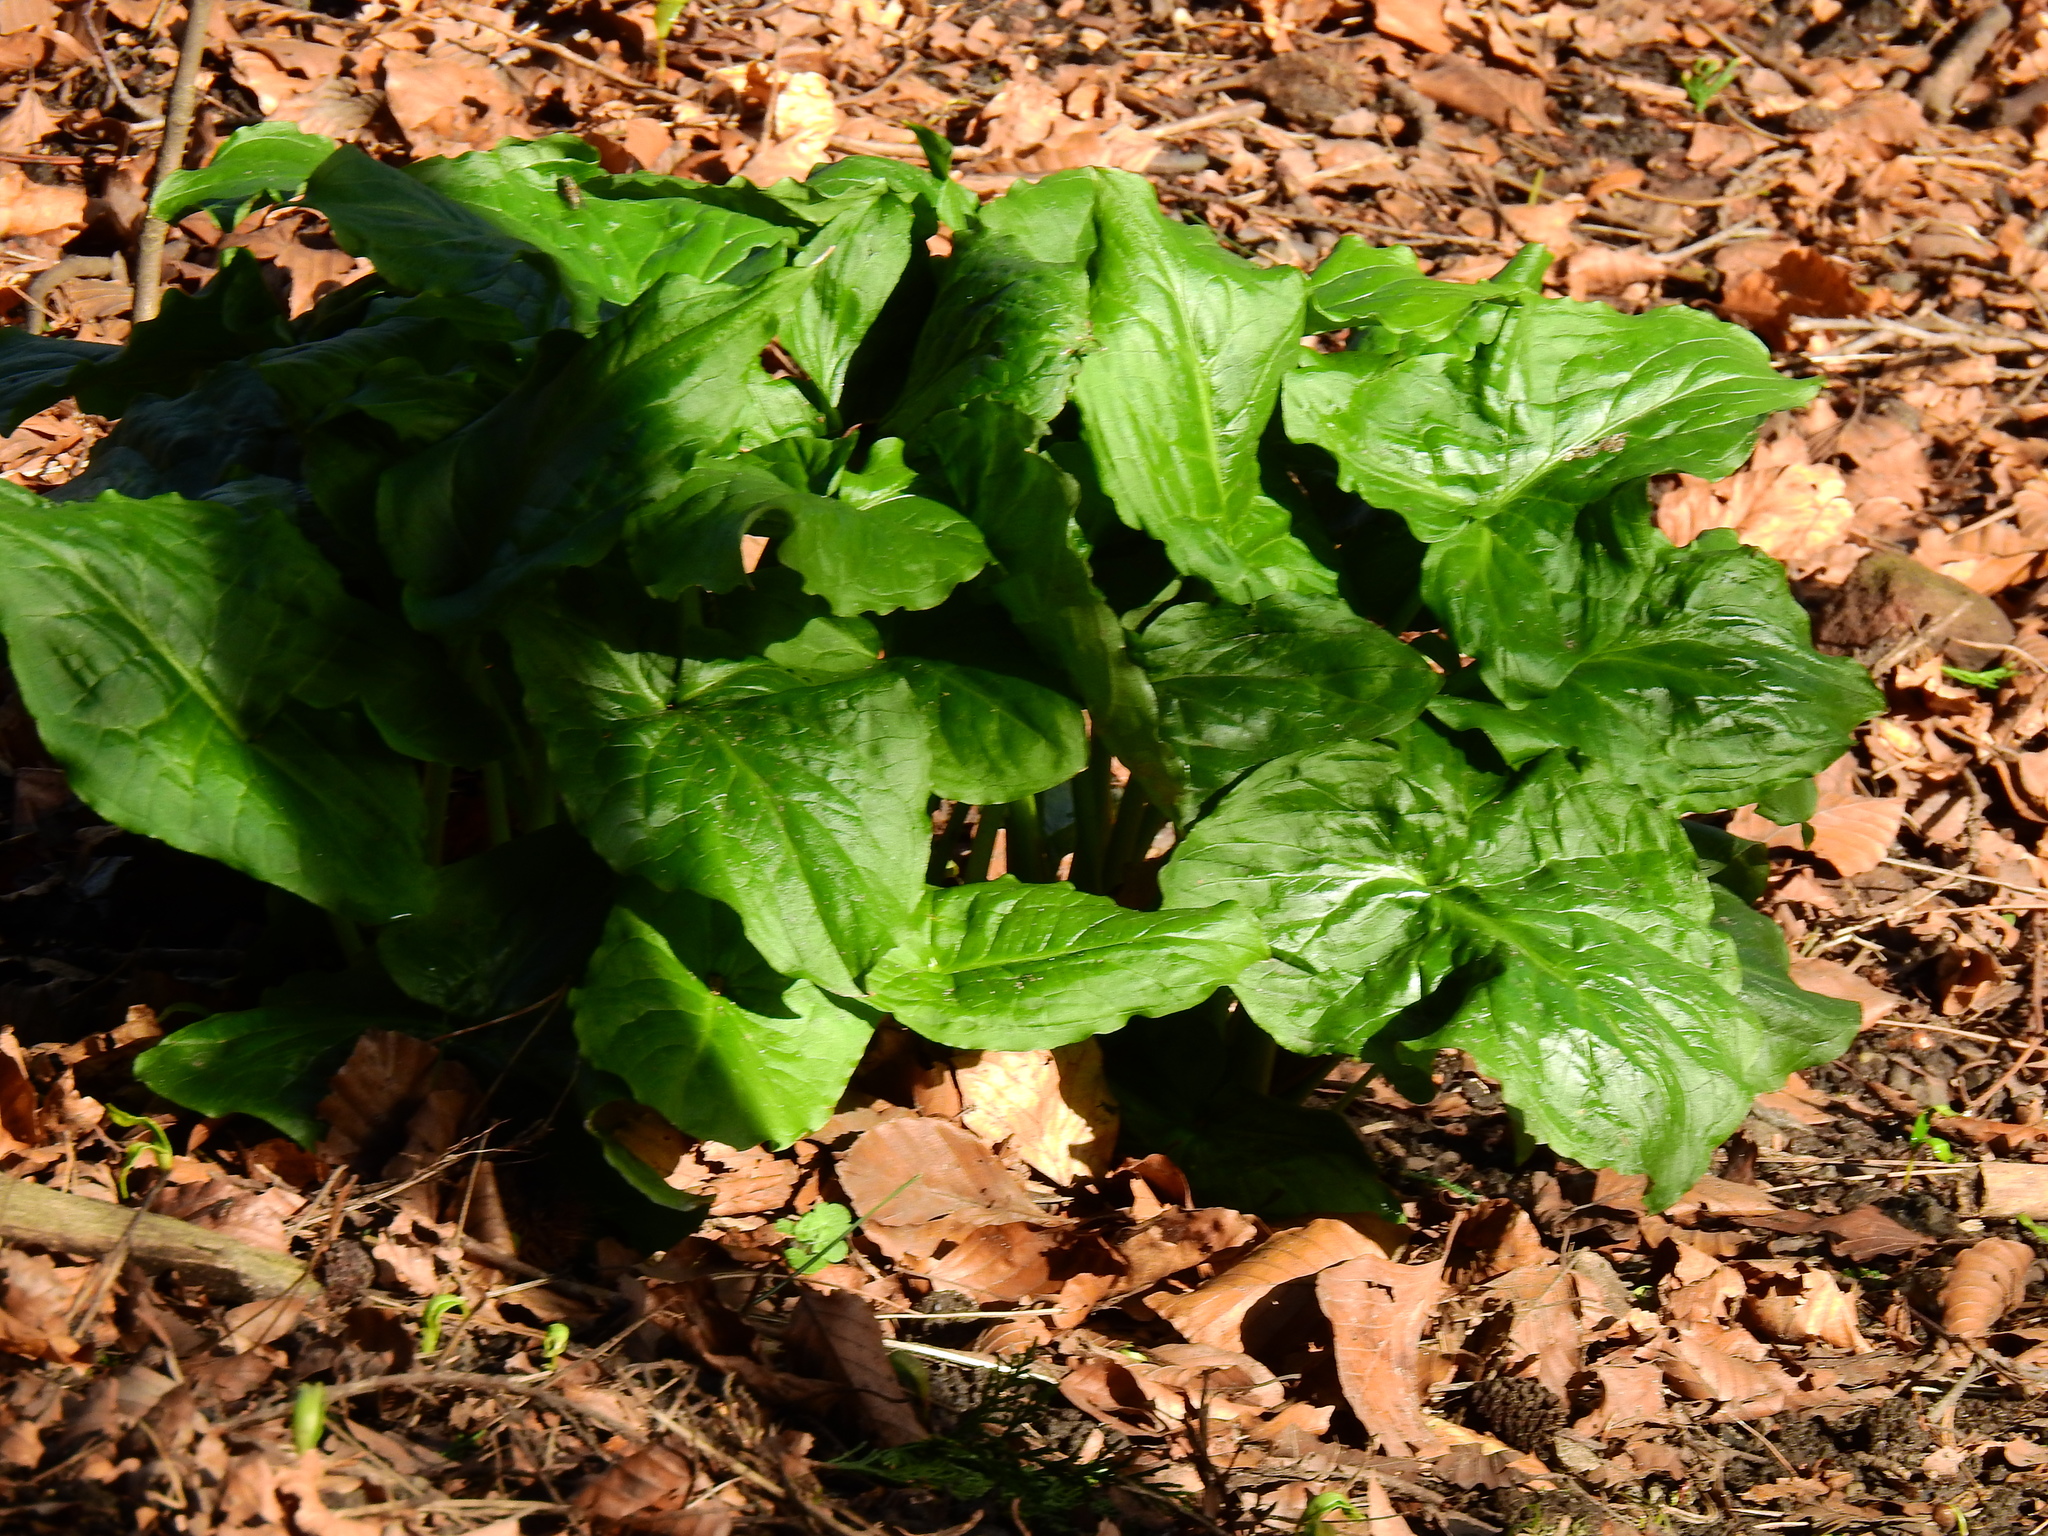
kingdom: Plantae
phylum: Tracheophyta
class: Liliopsida
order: Alismatales
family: Araceae
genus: Arum
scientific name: Arum maculatum
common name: Lords-and-ladies
